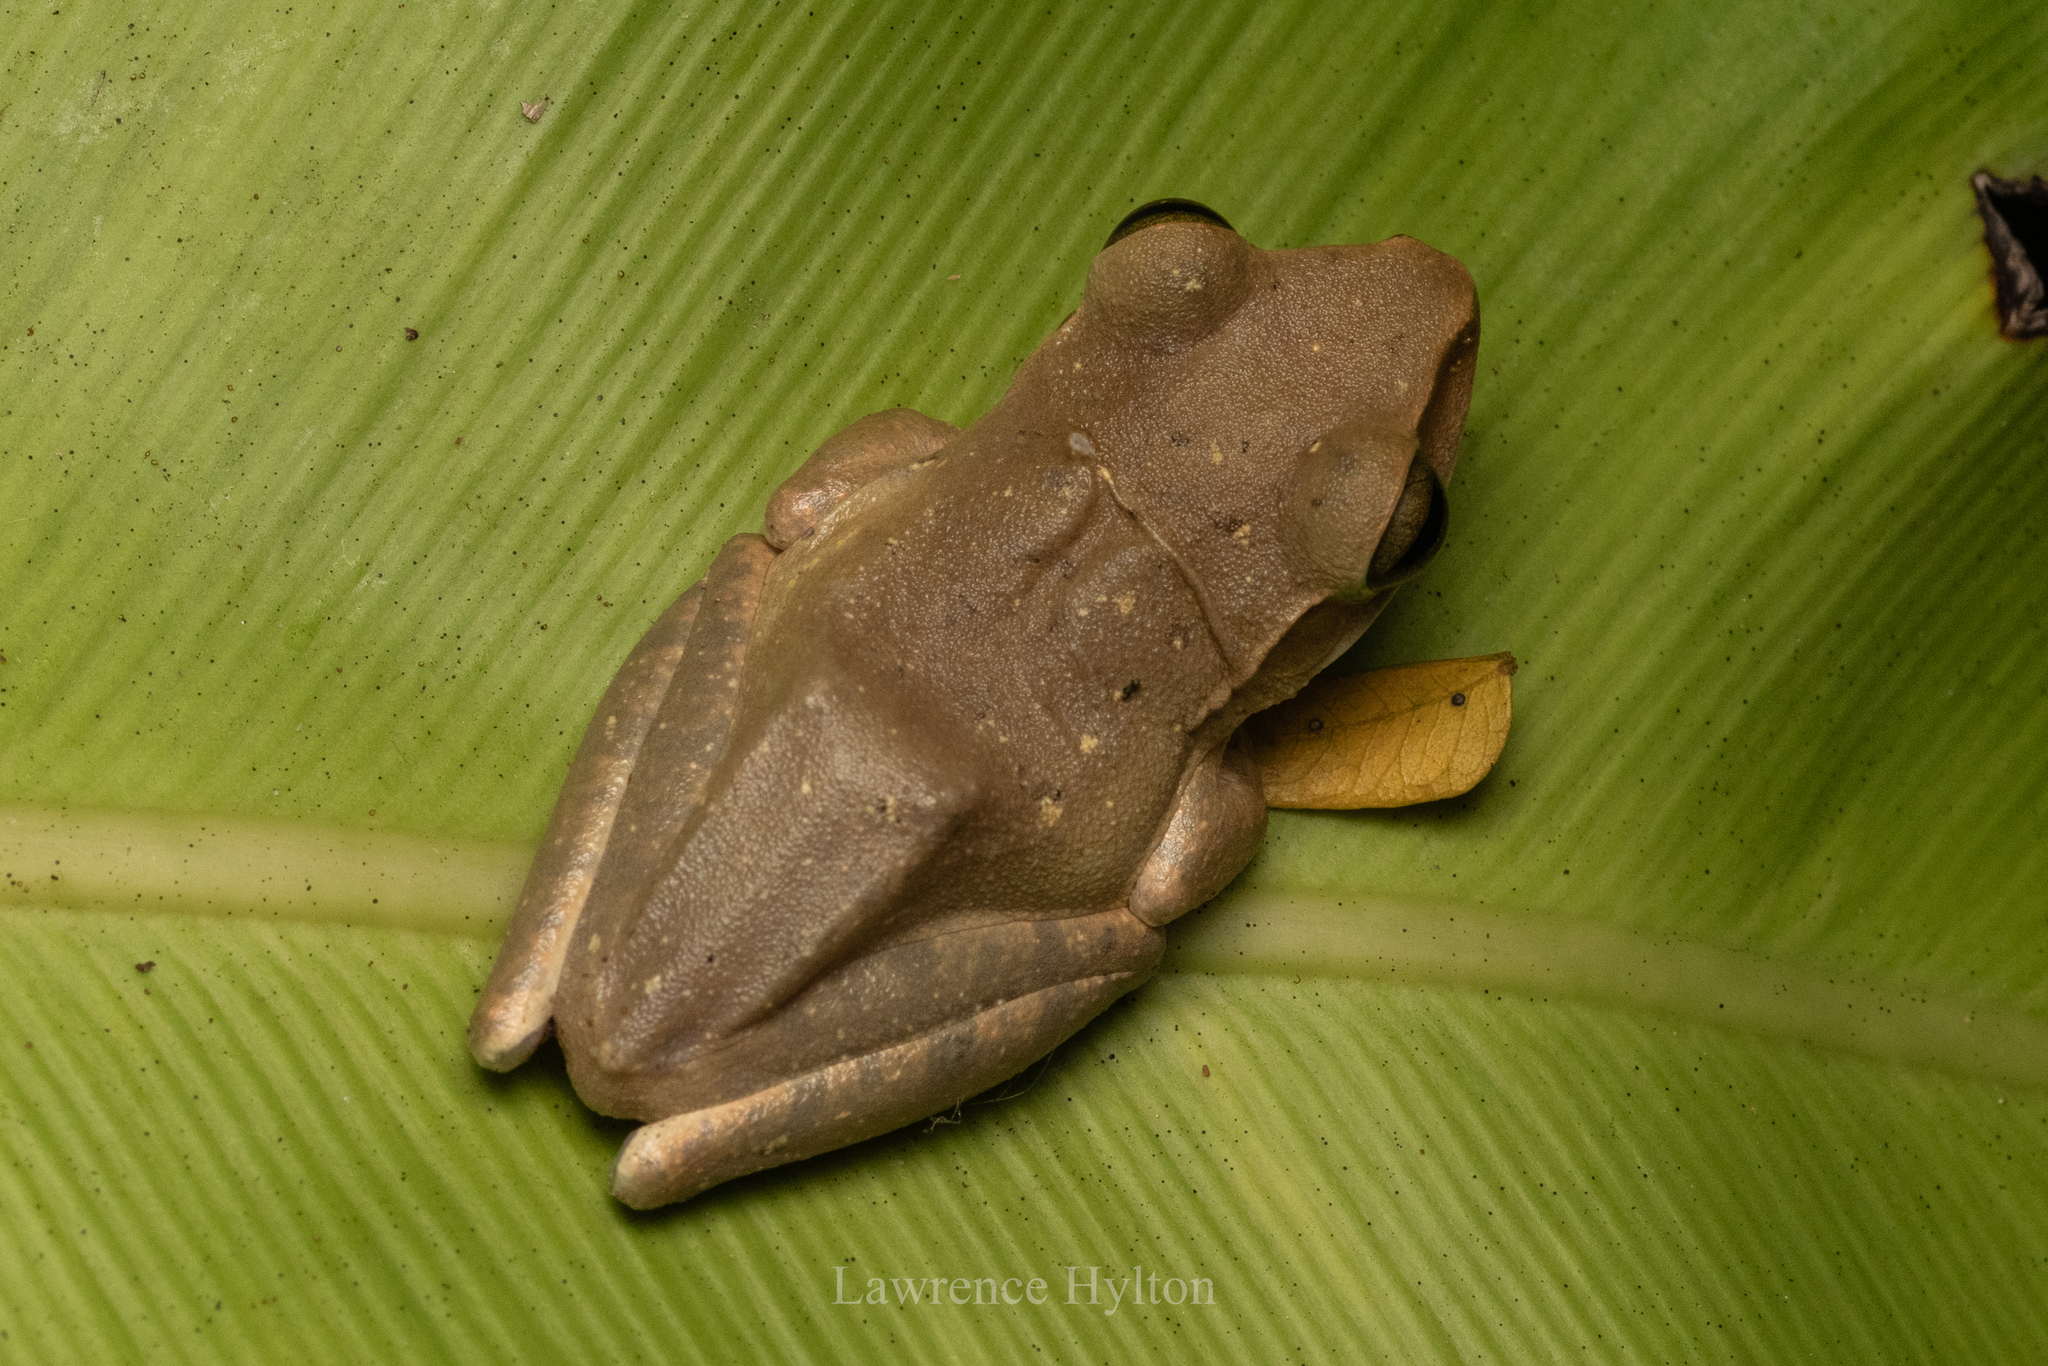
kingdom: Animalia
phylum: Chordata
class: Amphibia
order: Anura
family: Rhacophoridae
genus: Polypedates
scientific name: Polypedates megacephalus
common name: Hong kong whipping frog
